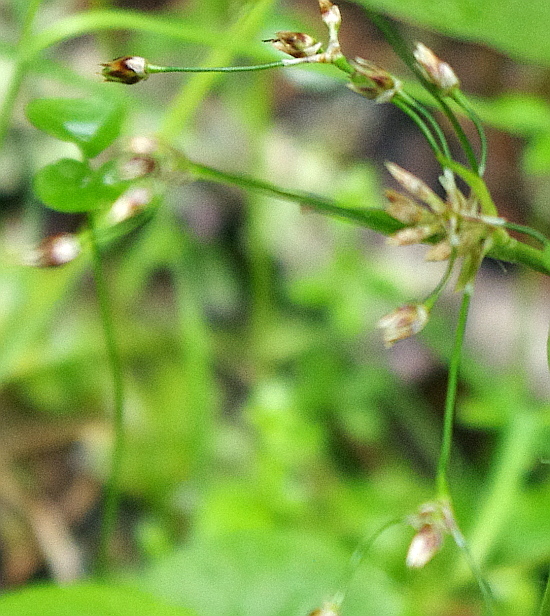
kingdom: Plantae
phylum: Tracheophyta
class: Liliopsida
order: Poales
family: Juncaceae
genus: Luzula
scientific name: Luzula pilosa
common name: Hairy wood-rush
